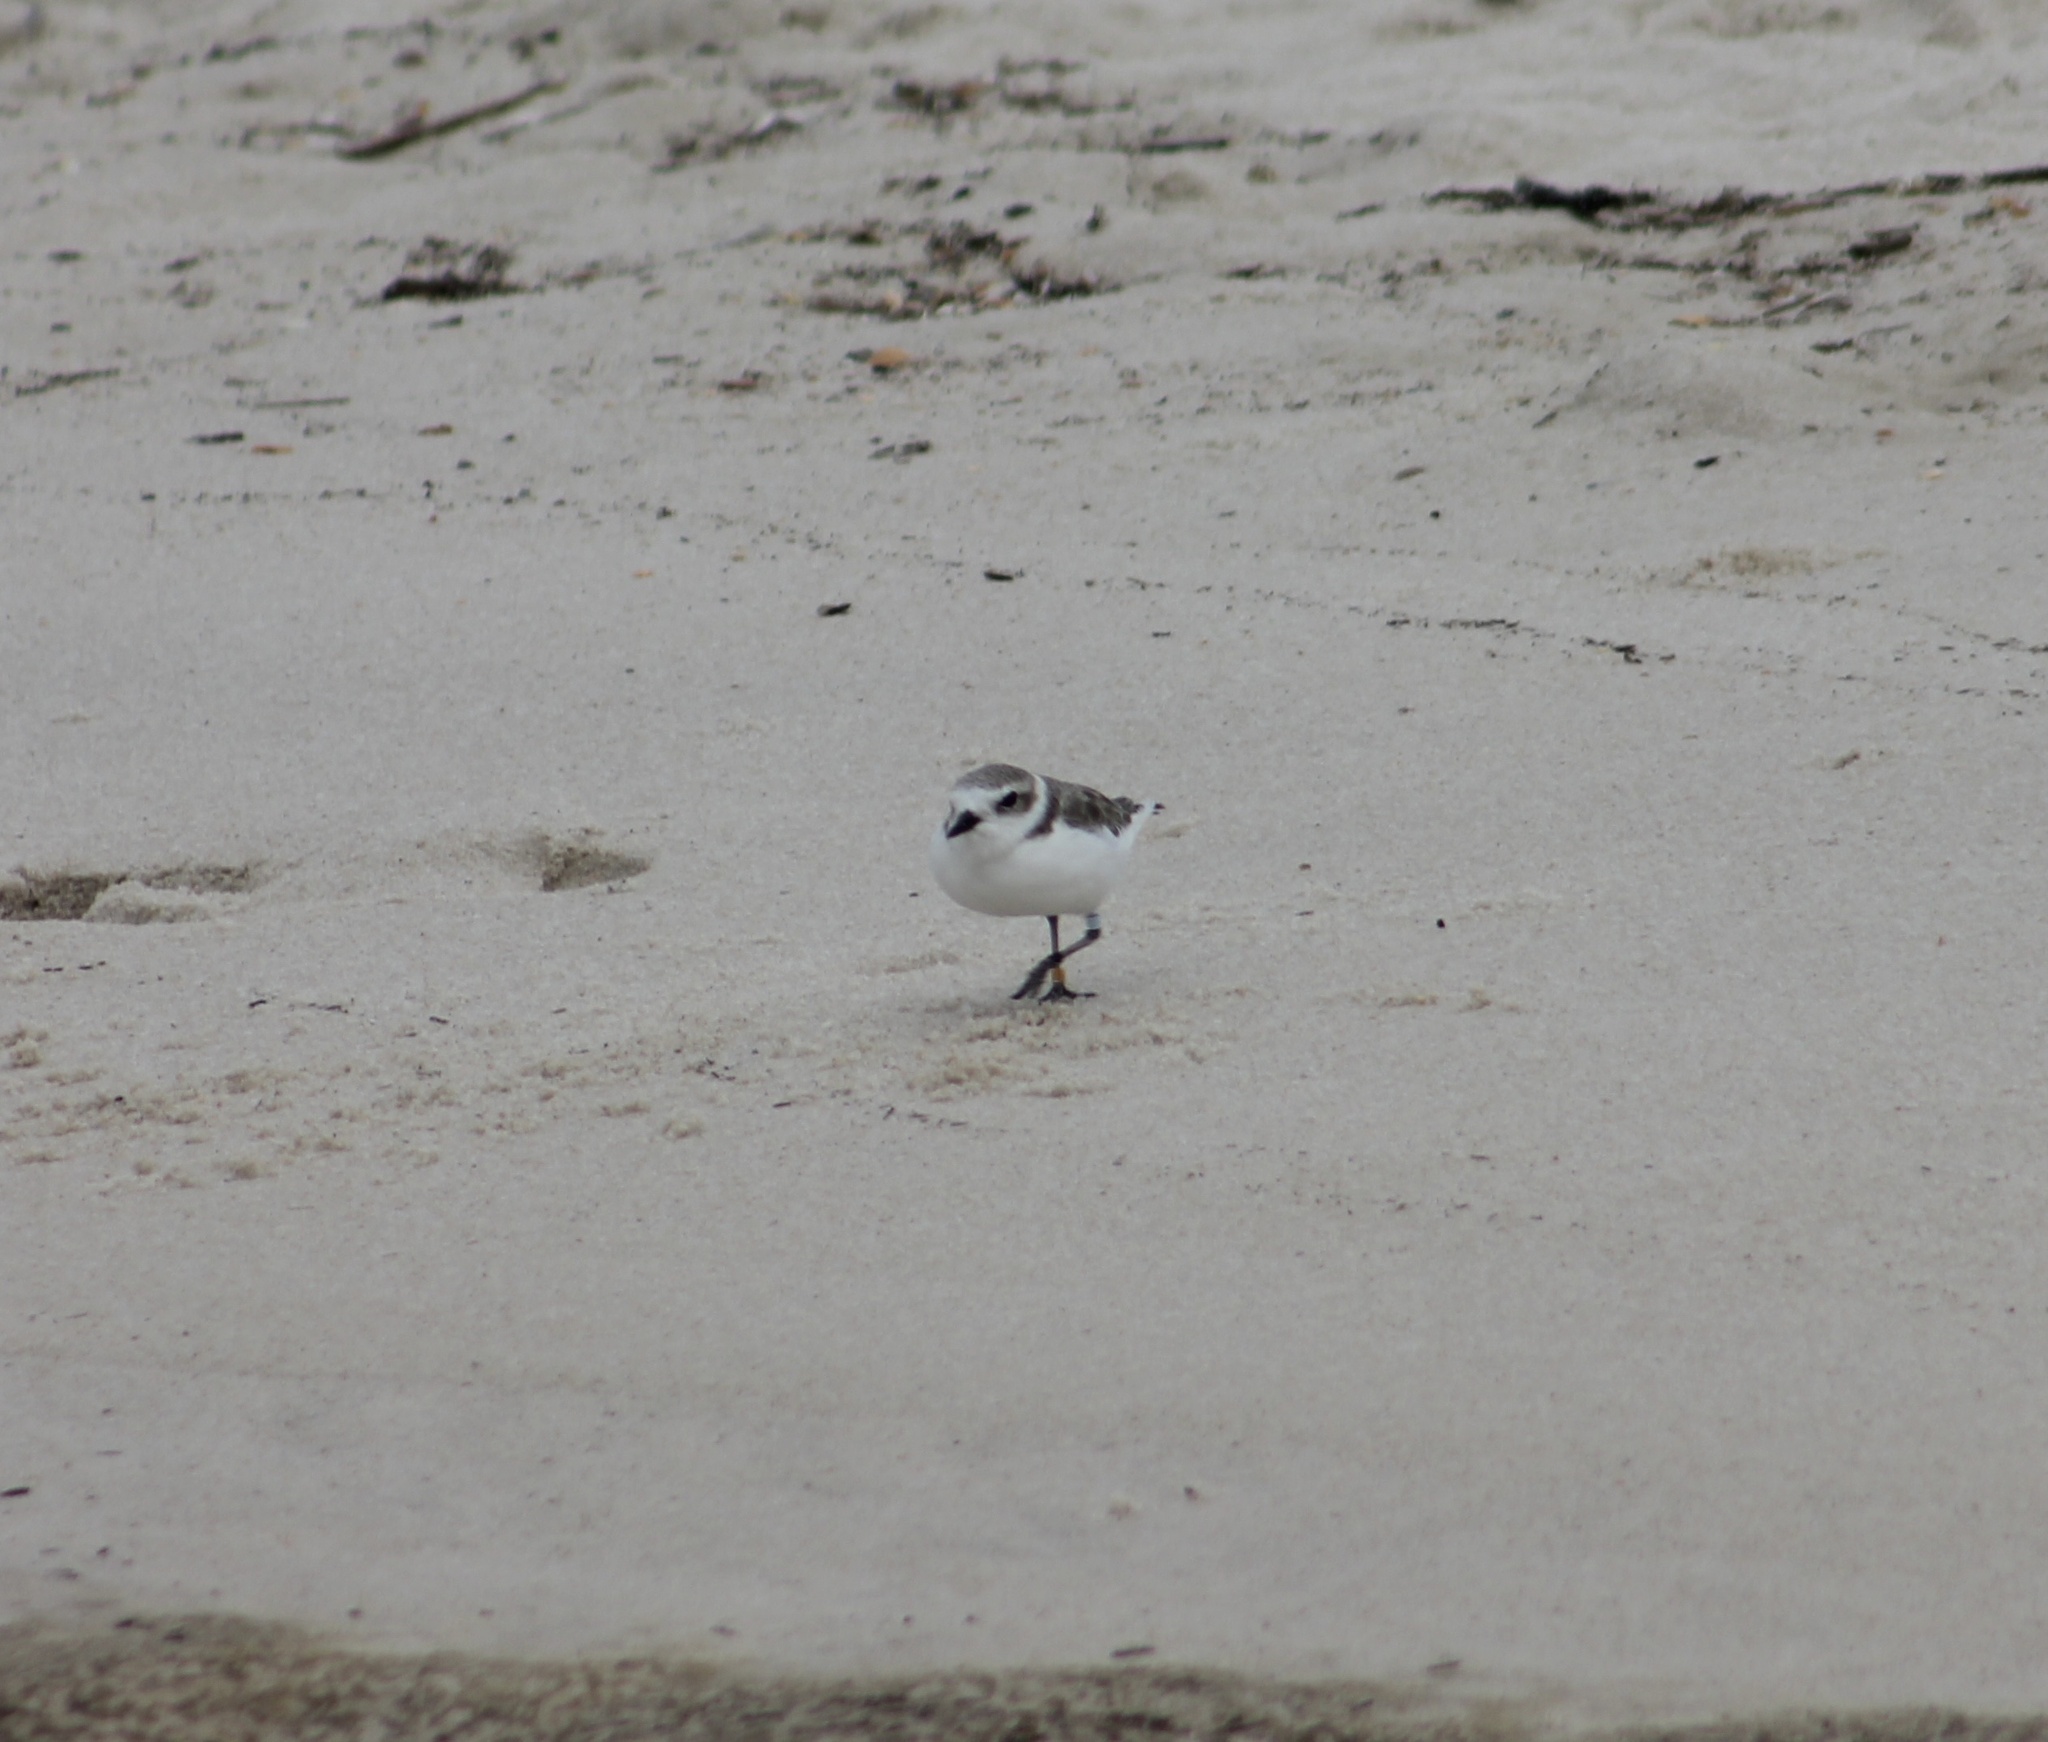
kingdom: Animalia
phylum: Chordata
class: Aves
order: Charadriiformes
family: Charadriidae
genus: Anarhynchus
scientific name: Anarhynchus
